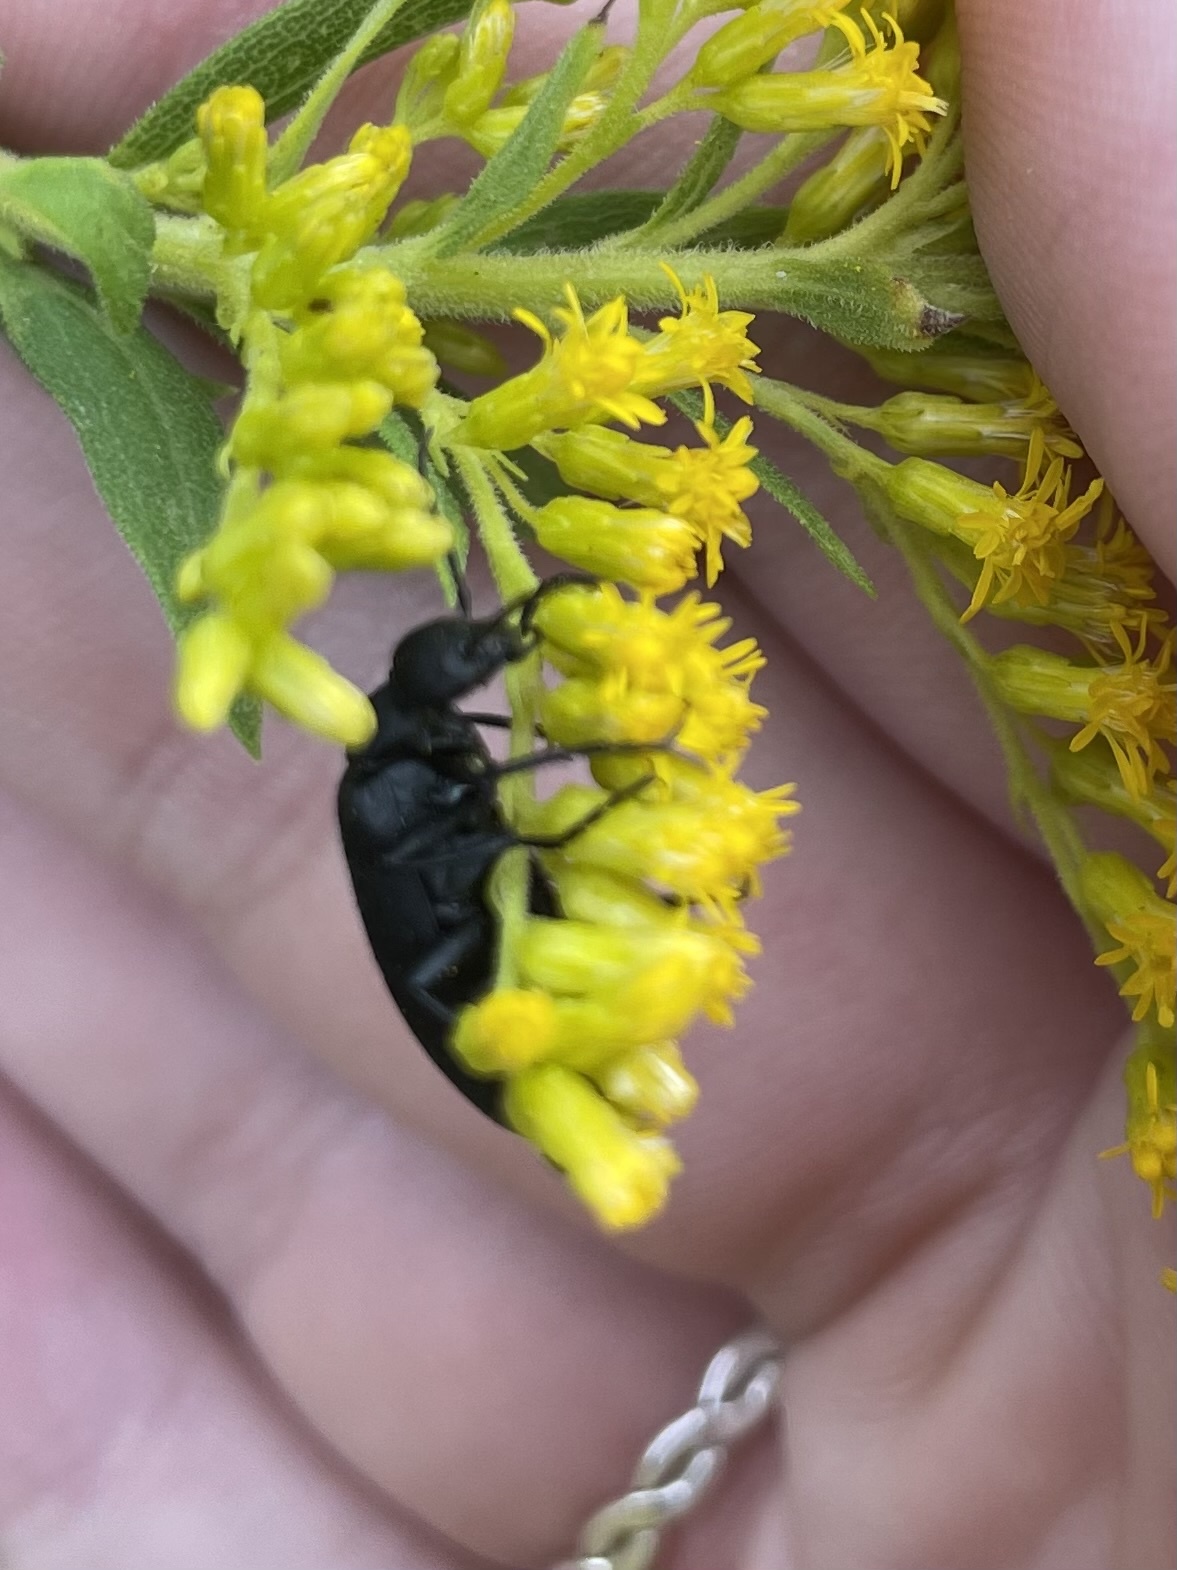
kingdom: Animalia
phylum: Arthropoda
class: Insecta
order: Coleoptera
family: Meloidae
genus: Epicauta
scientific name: Epicauta pensylvanica
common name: Black blister beetle
